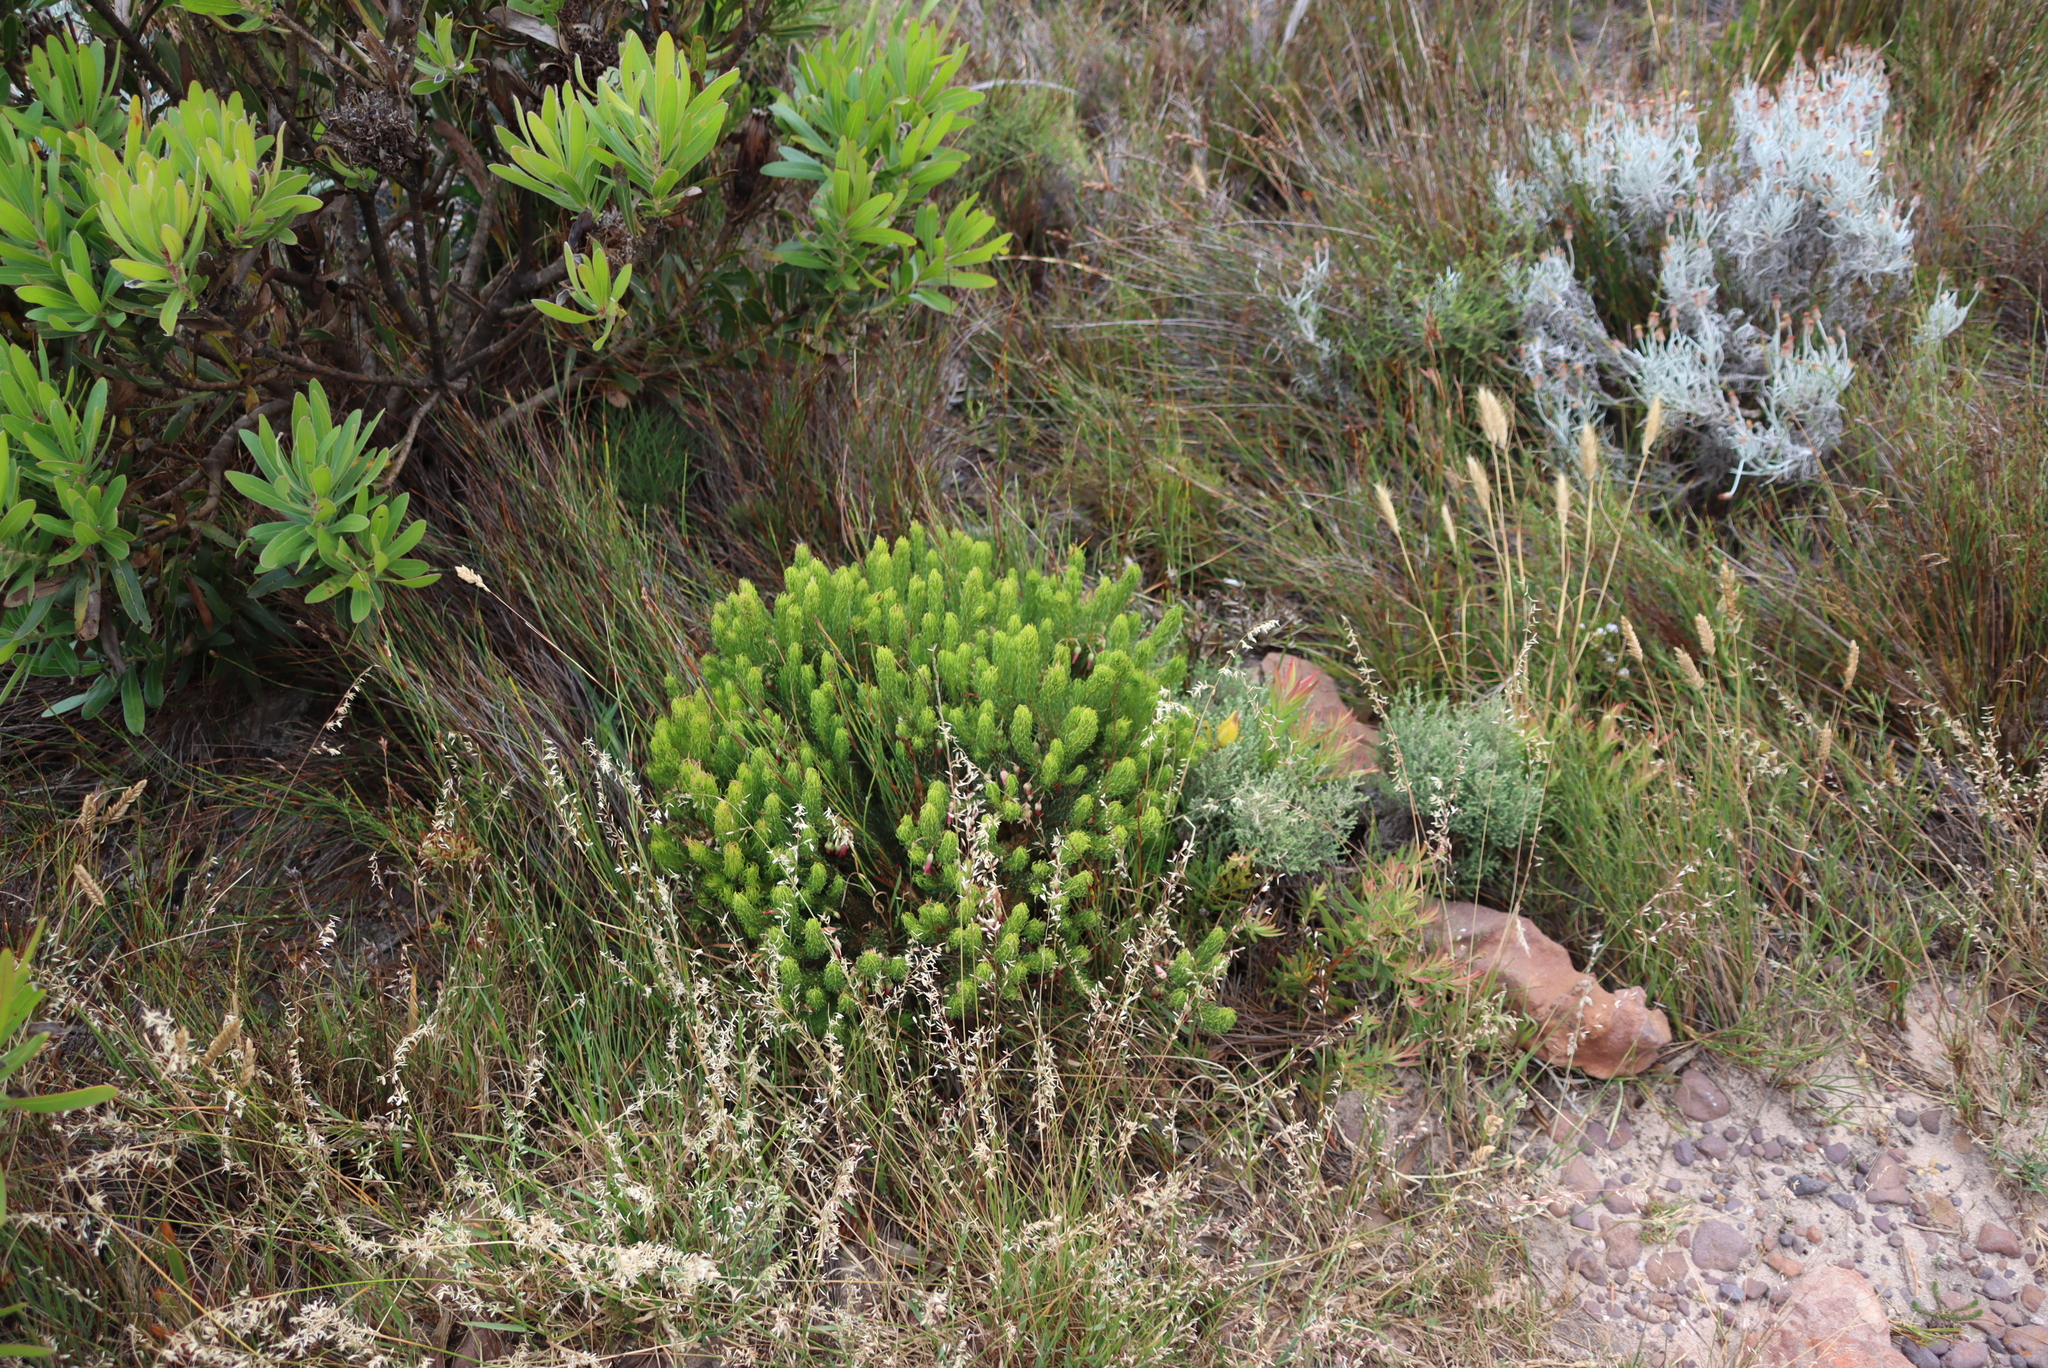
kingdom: Plantae
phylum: Tracheophyta
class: Magnoliopsida
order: Ericales
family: Ericaceae
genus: Erica
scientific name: Erica plukenetii
